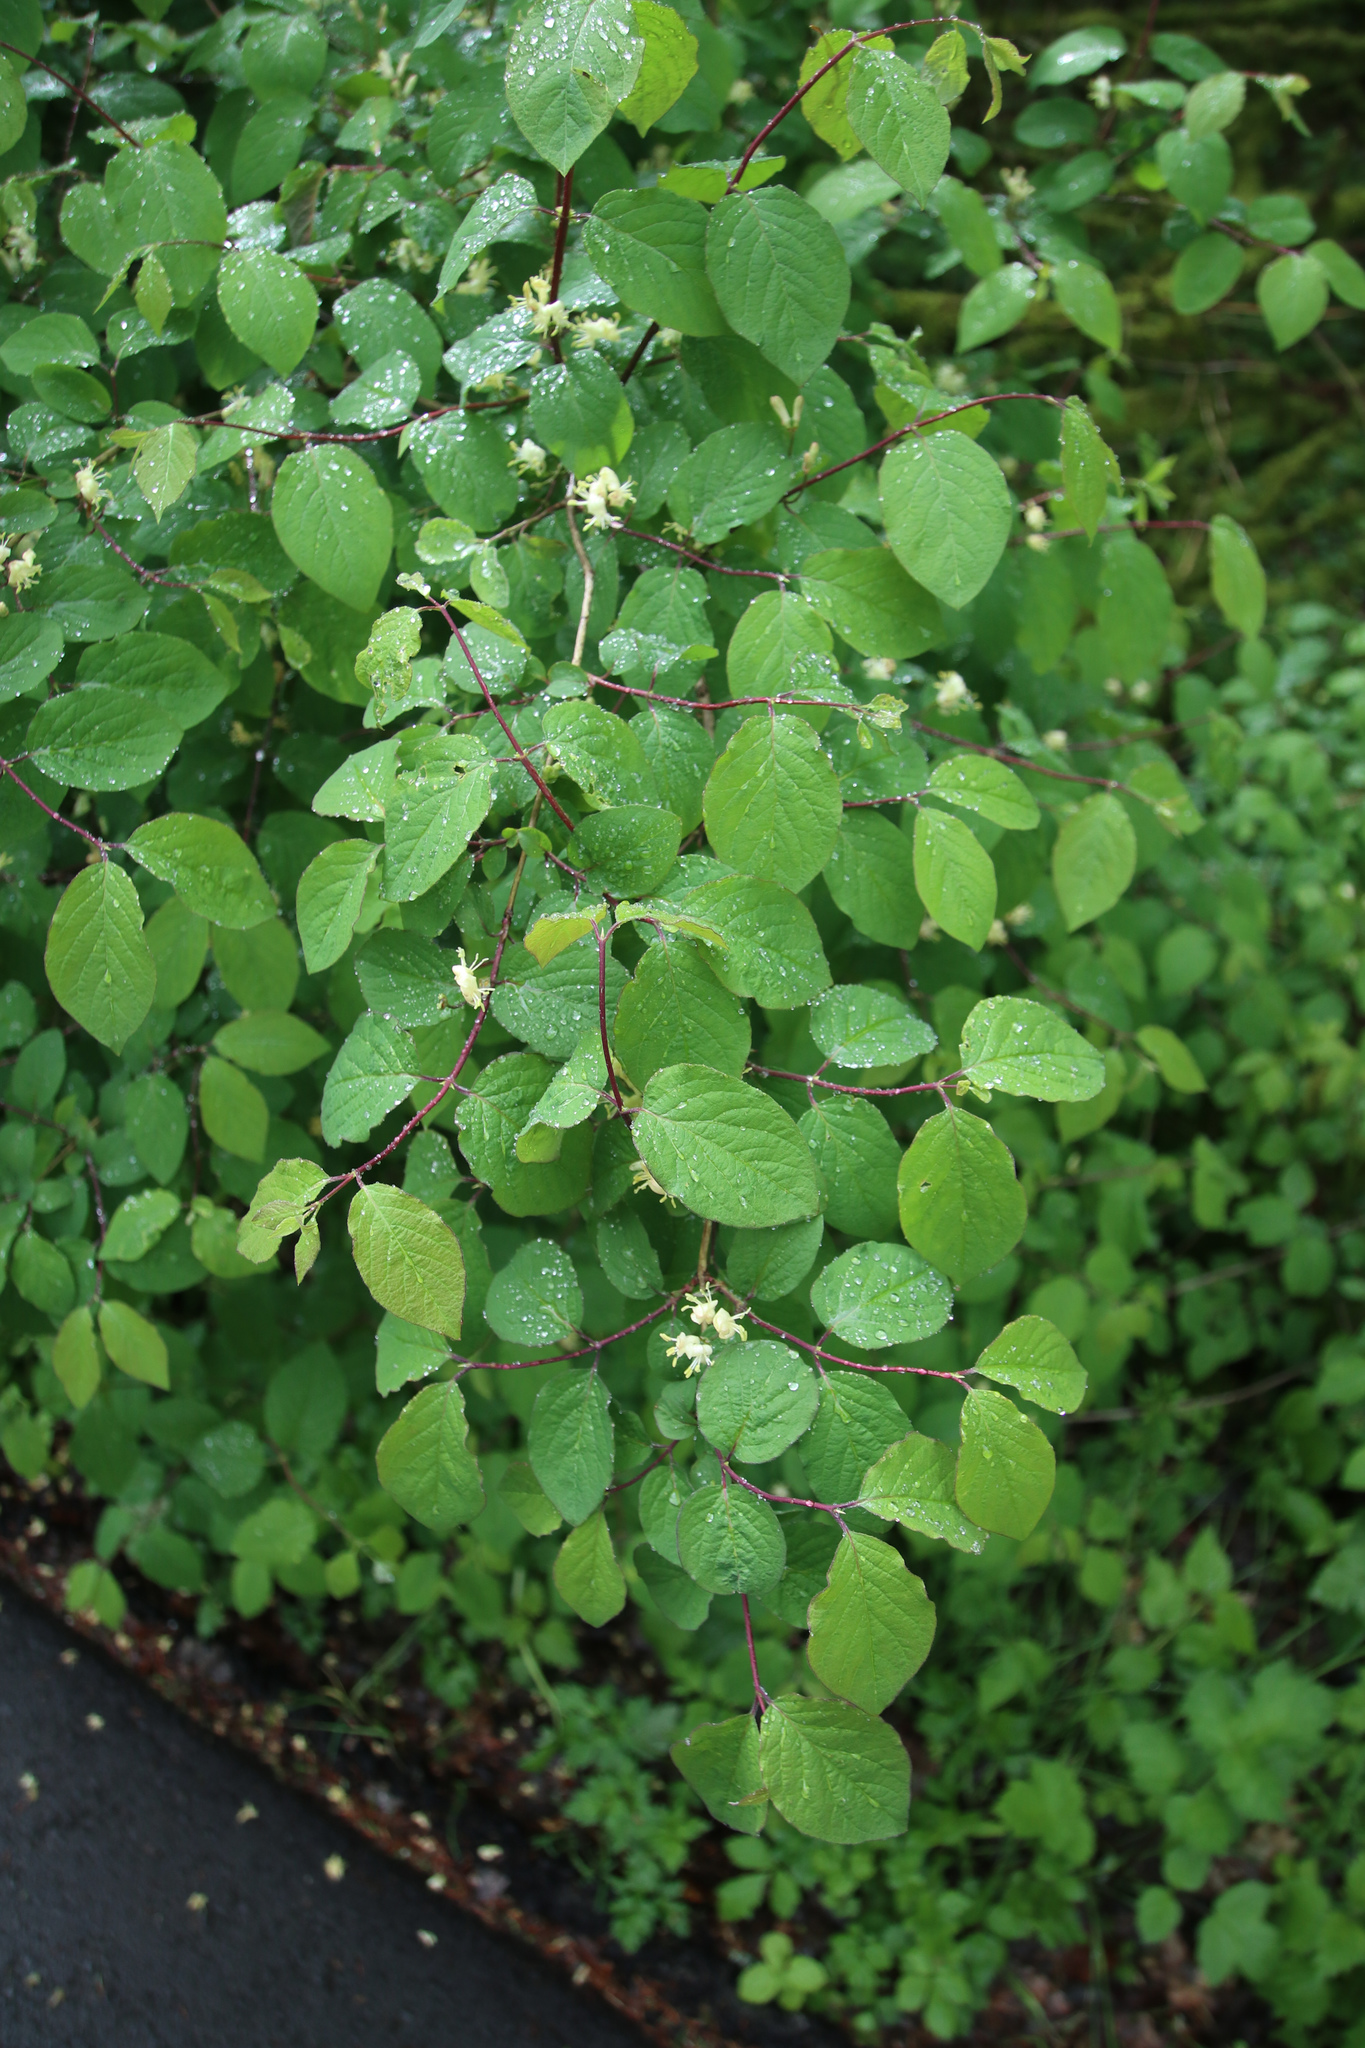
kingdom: Plantae
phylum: Tracheophyta
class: Magnoliopsida
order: Dipsacales
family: Caprifoliaceae
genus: Lonicera
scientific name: Lonicera xylosteum
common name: Fly honeysuckle
